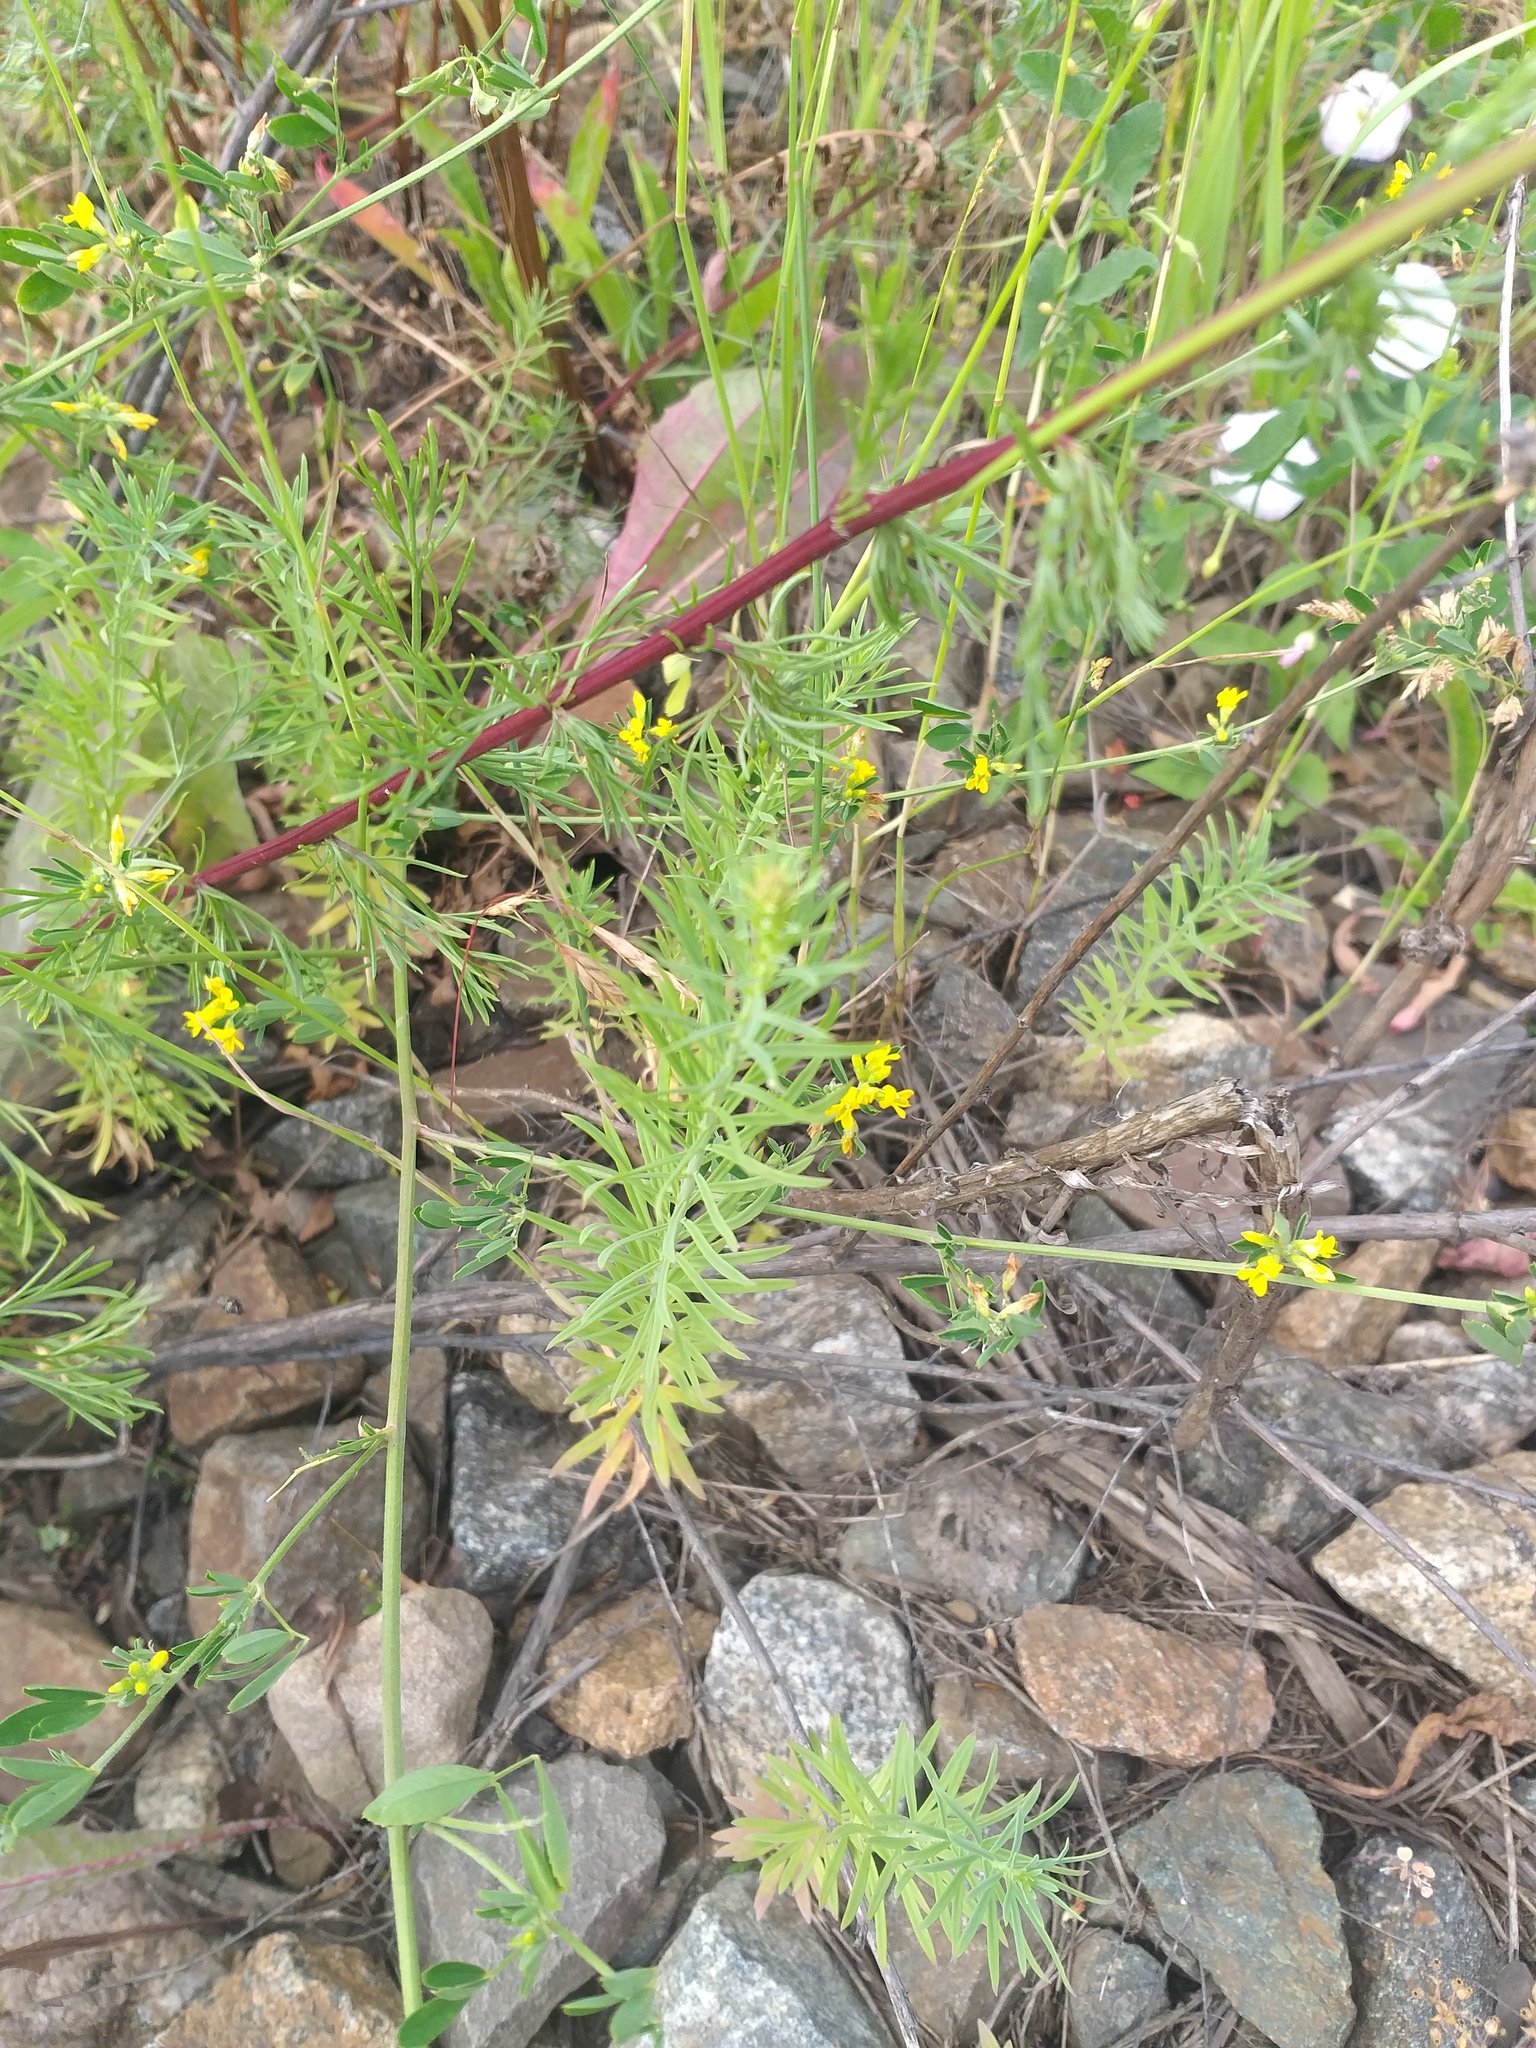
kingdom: Plantae
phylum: Tracheophyta
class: Magnoliopsida
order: Lamiales
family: Plantaginaceae
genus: Linaria
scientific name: Linaria vulgaris
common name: Butter and eggs
